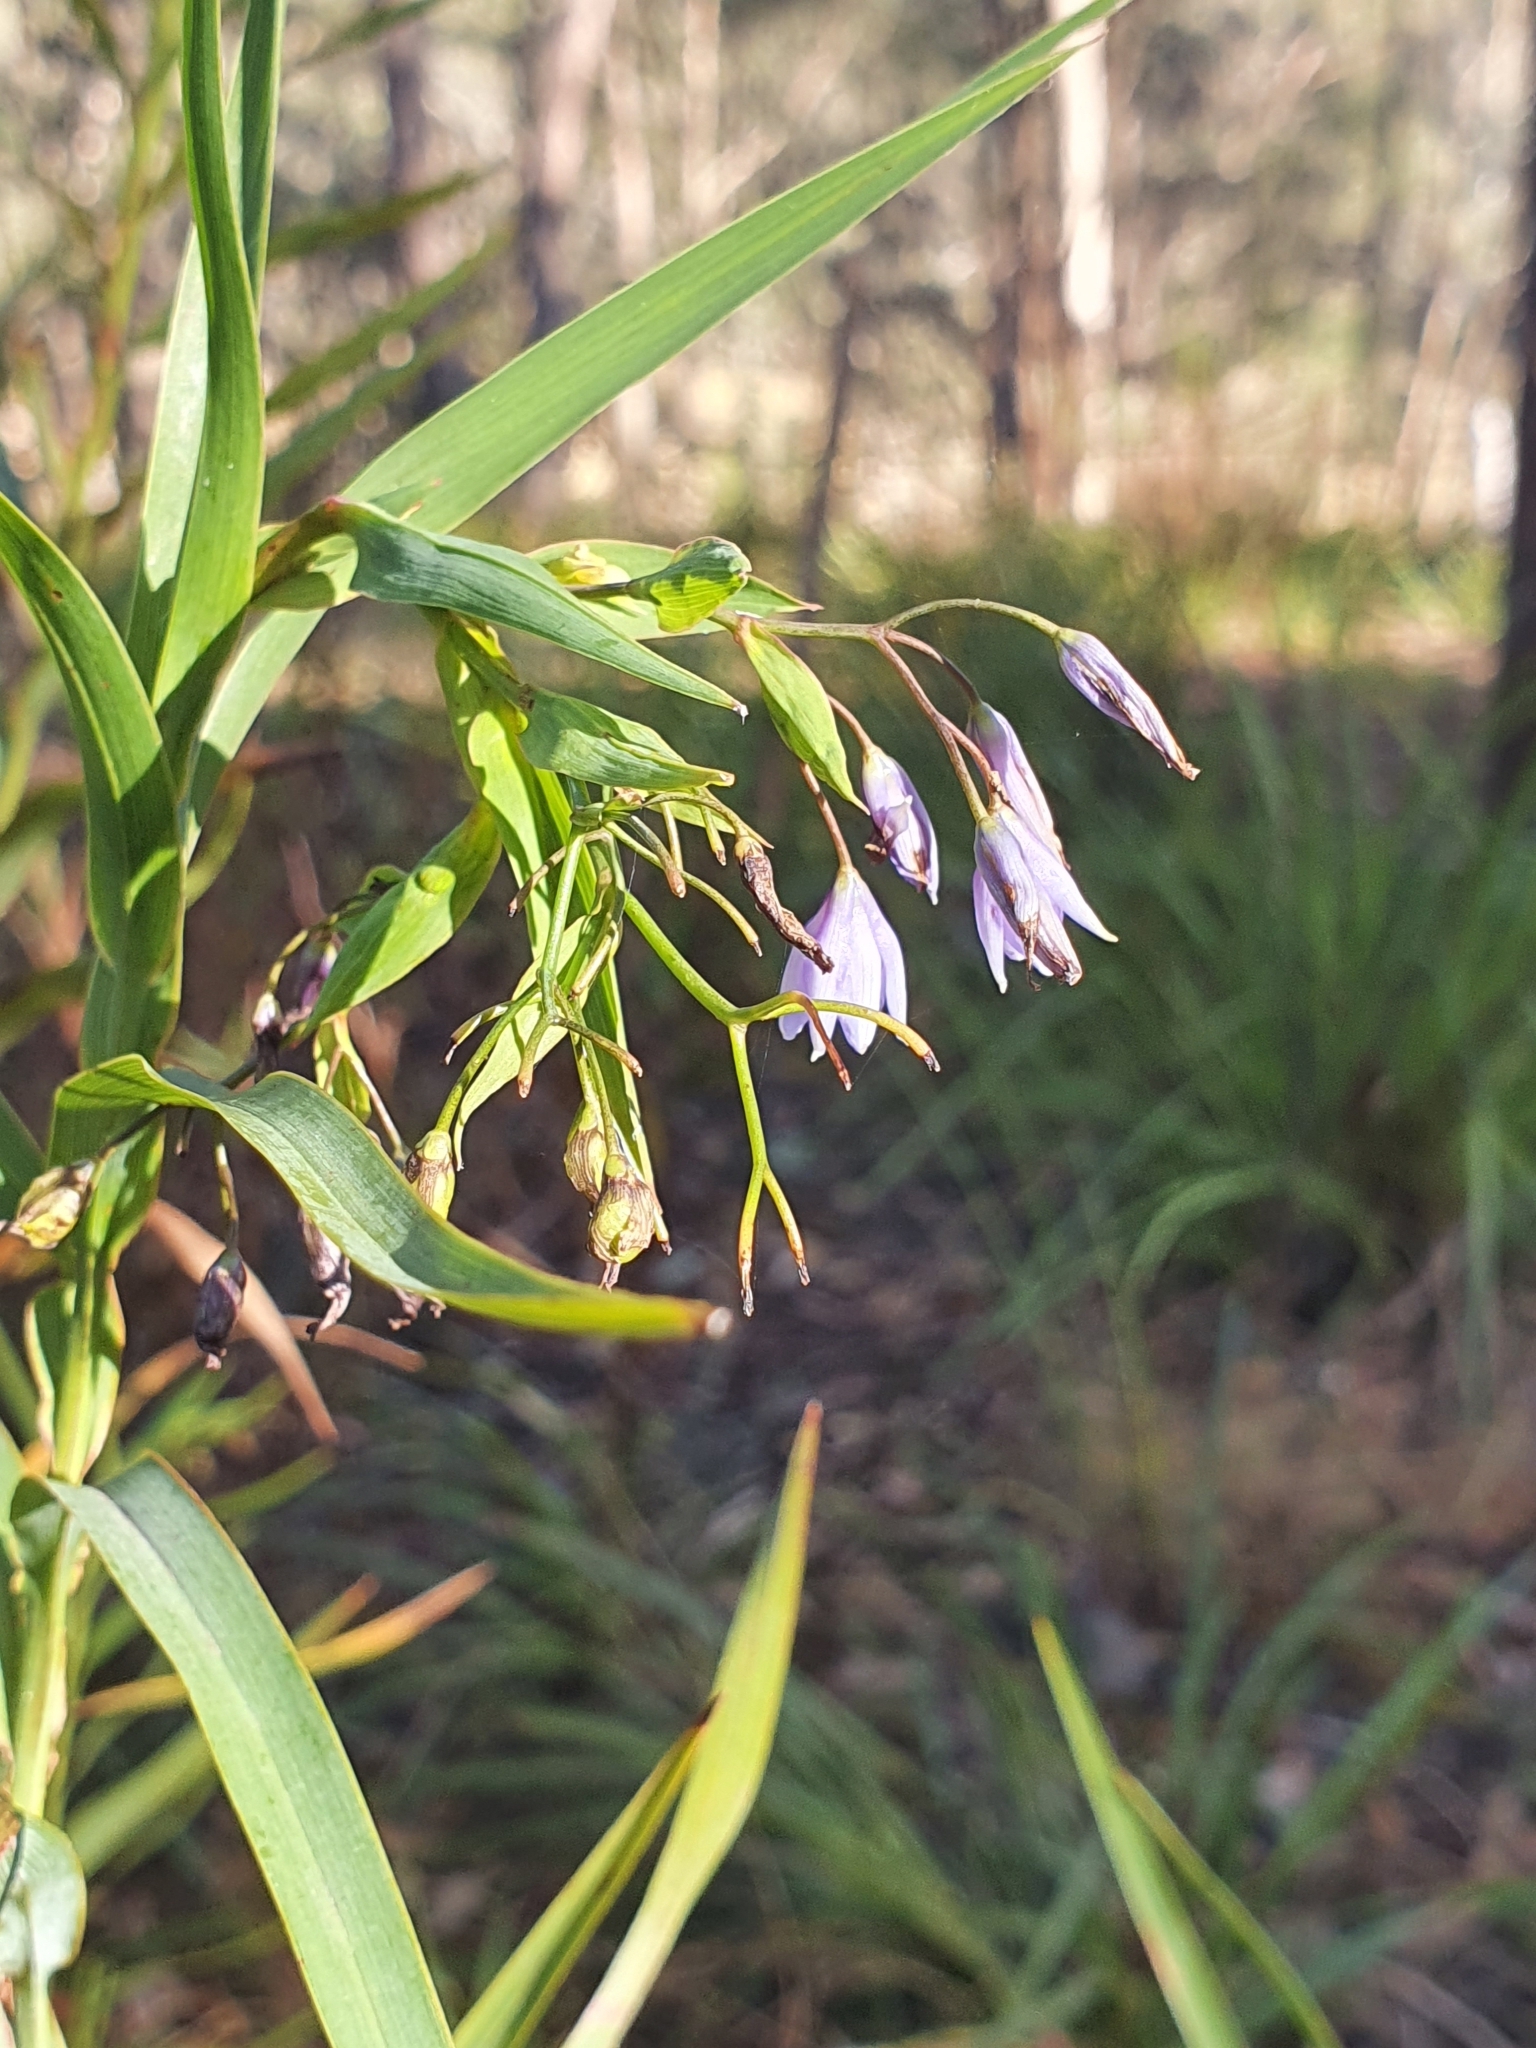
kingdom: Plantae
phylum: Tracheophyta
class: Liliopsida
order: Asparagales
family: Asphodelaceae
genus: Stypandra
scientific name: Stypandra glauca
